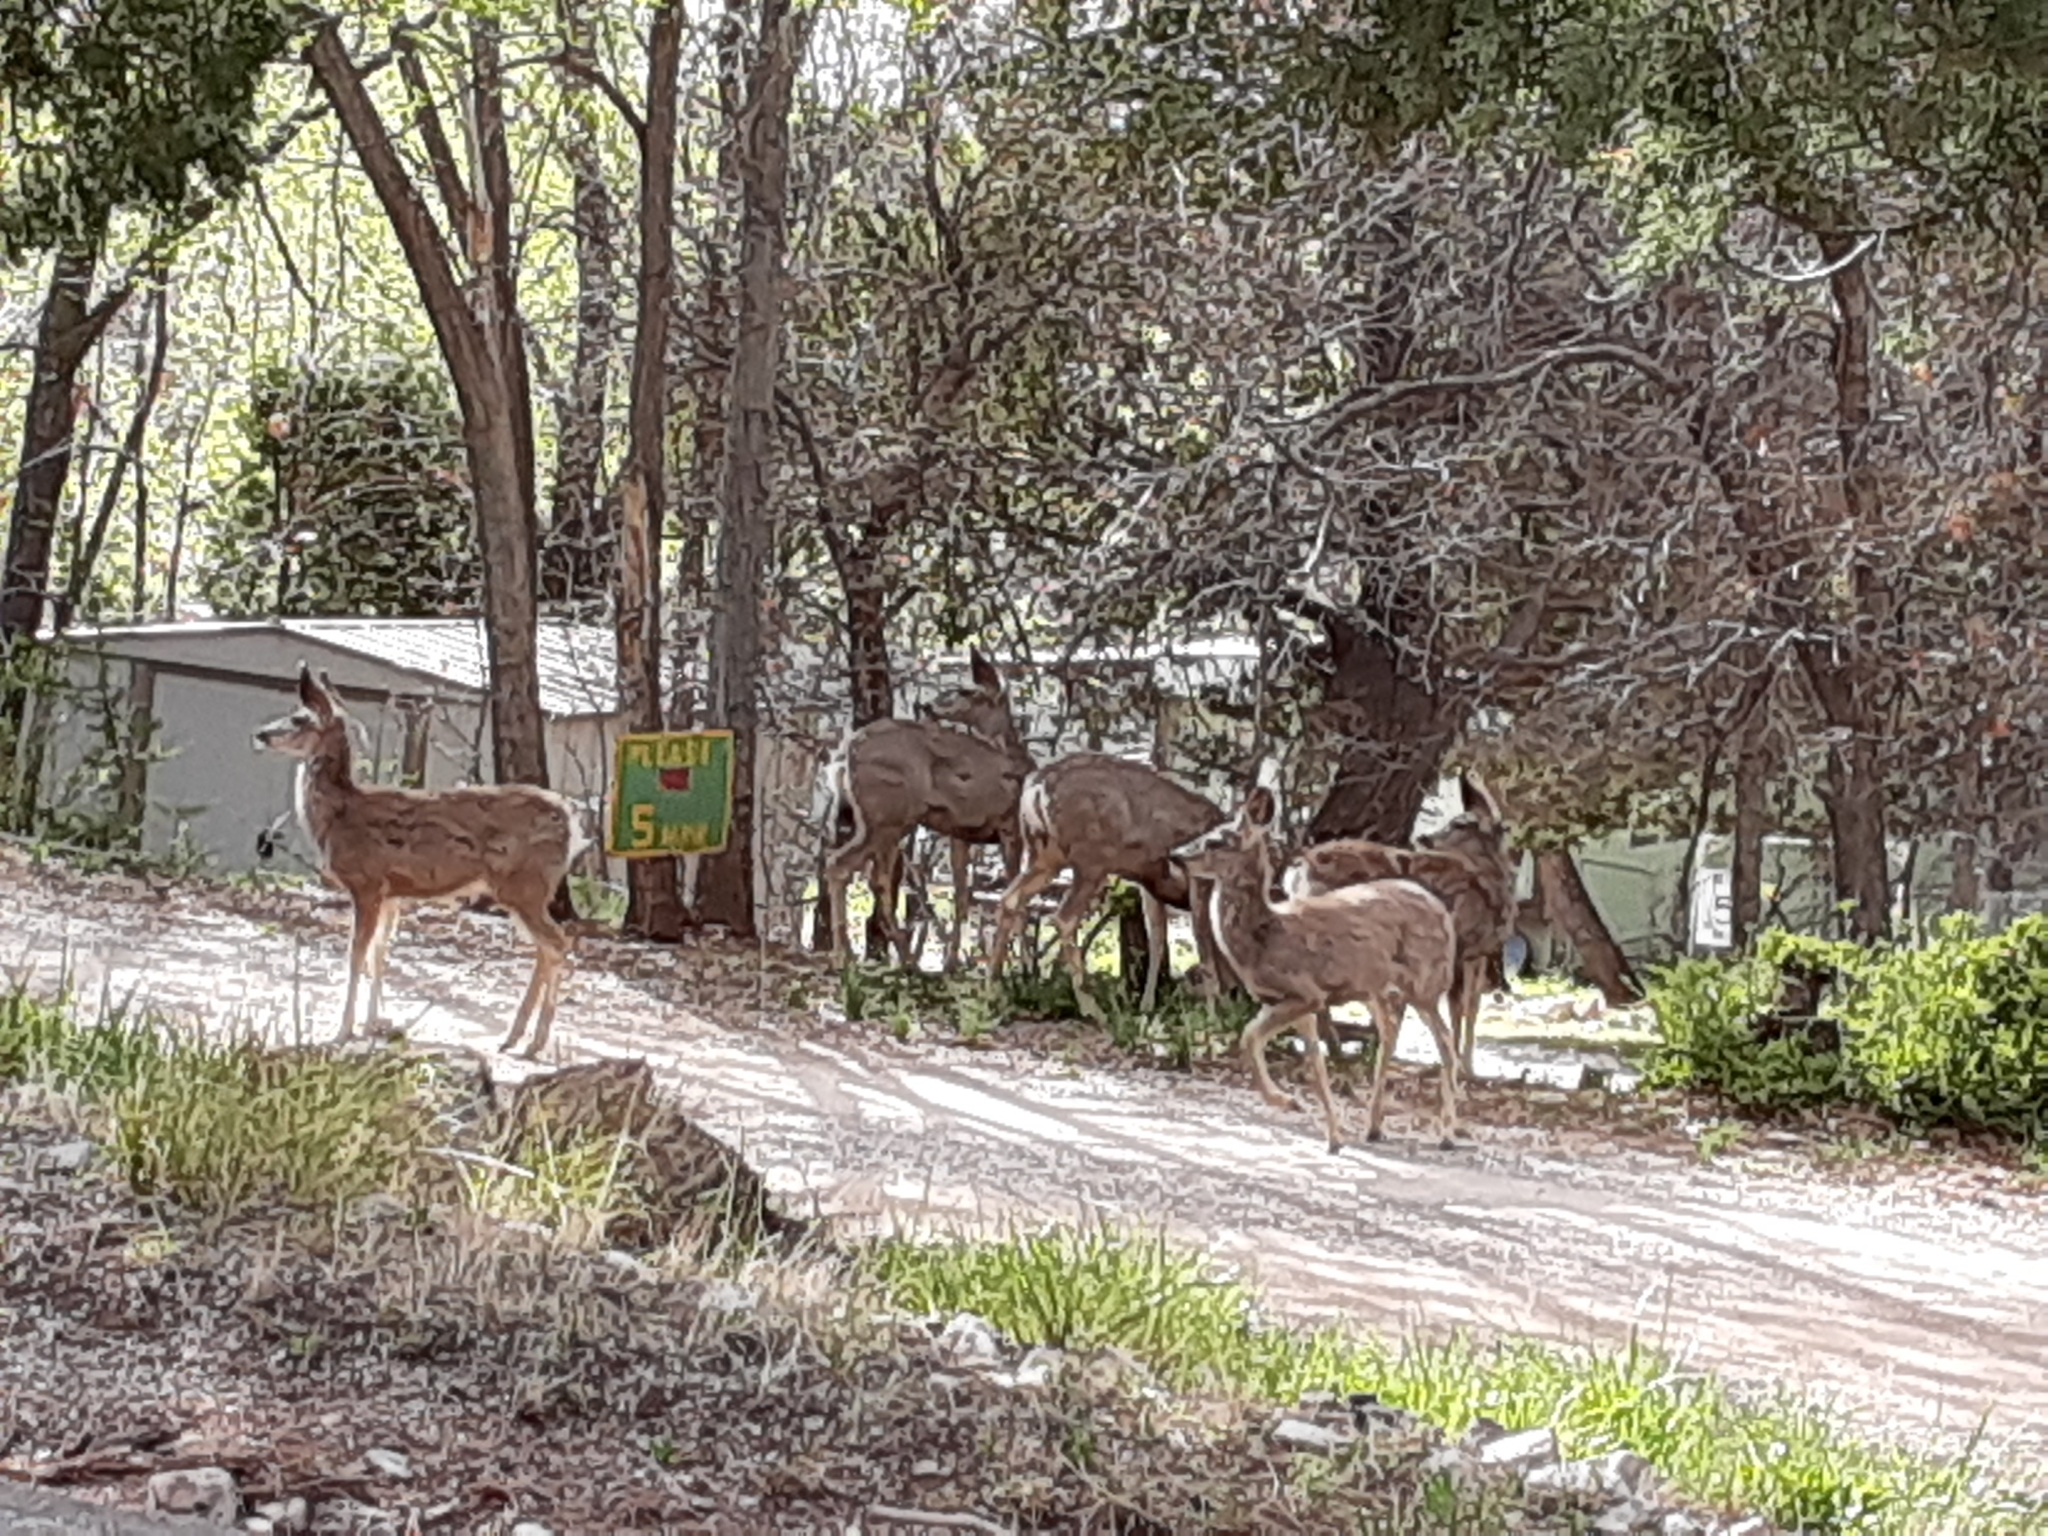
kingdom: Animalia
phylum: Chordata
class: Mammalia
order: Artiodactyla
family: Cervidae
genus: Odocoileus
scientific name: Odocoileus hemionus
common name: Mule deer
